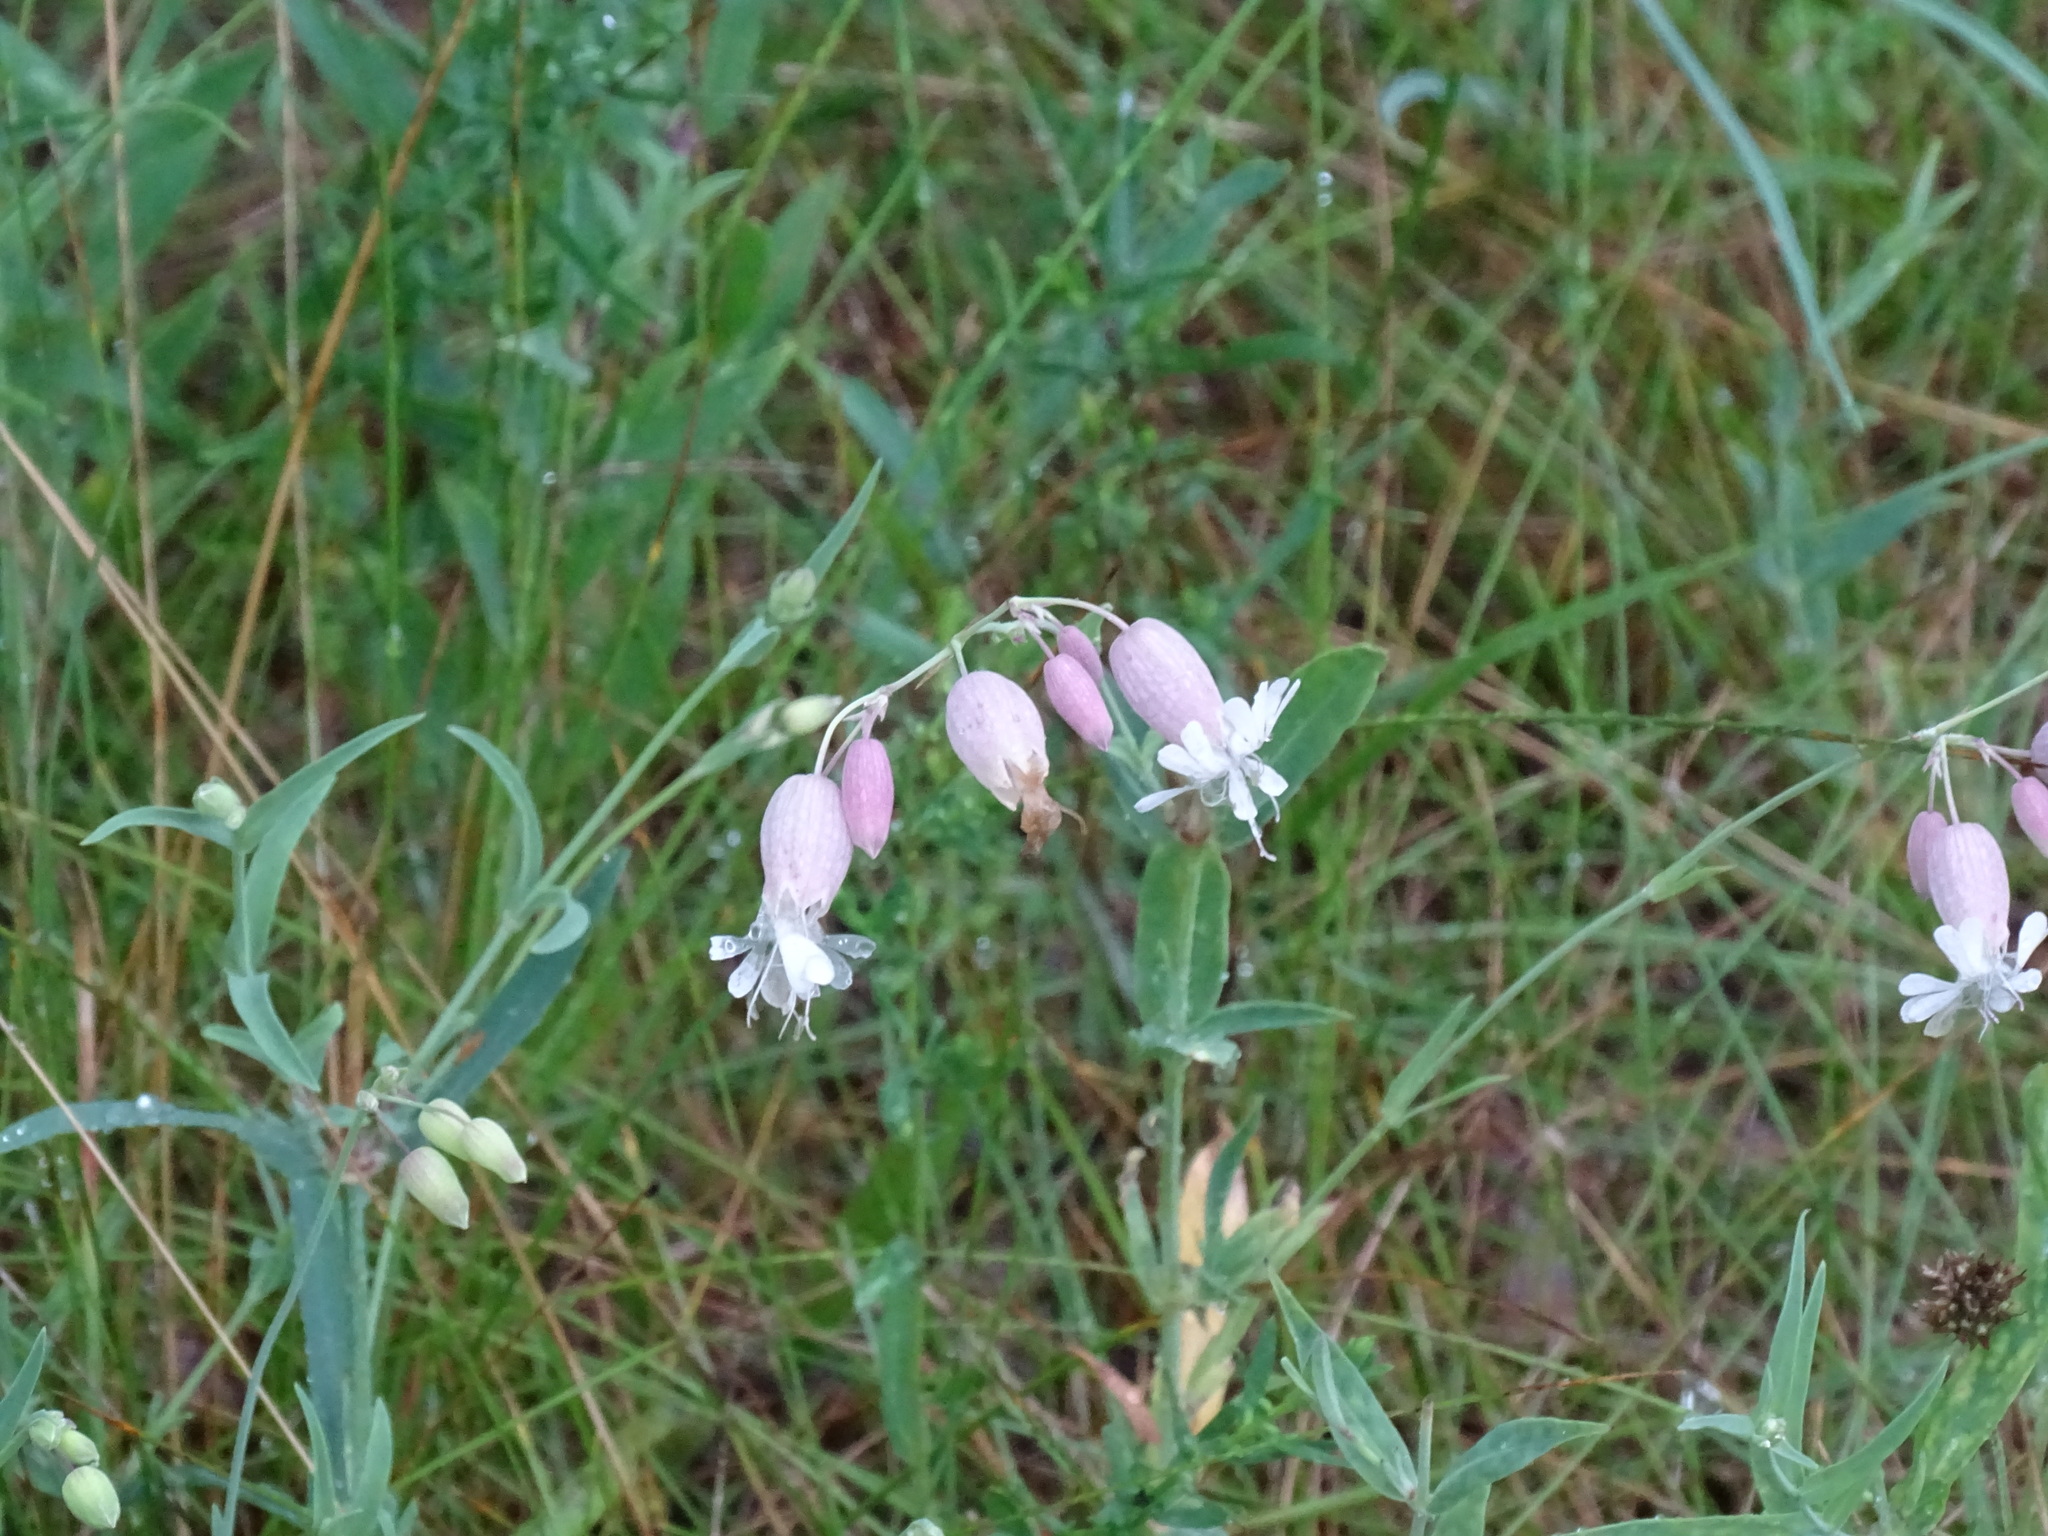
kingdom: Plantae
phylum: Tracheophyta
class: Magnoliopsida
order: Caryophyllales
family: Caryophyllaceae
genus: Silene
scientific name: Silene vulgaris
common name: Bladder campion
